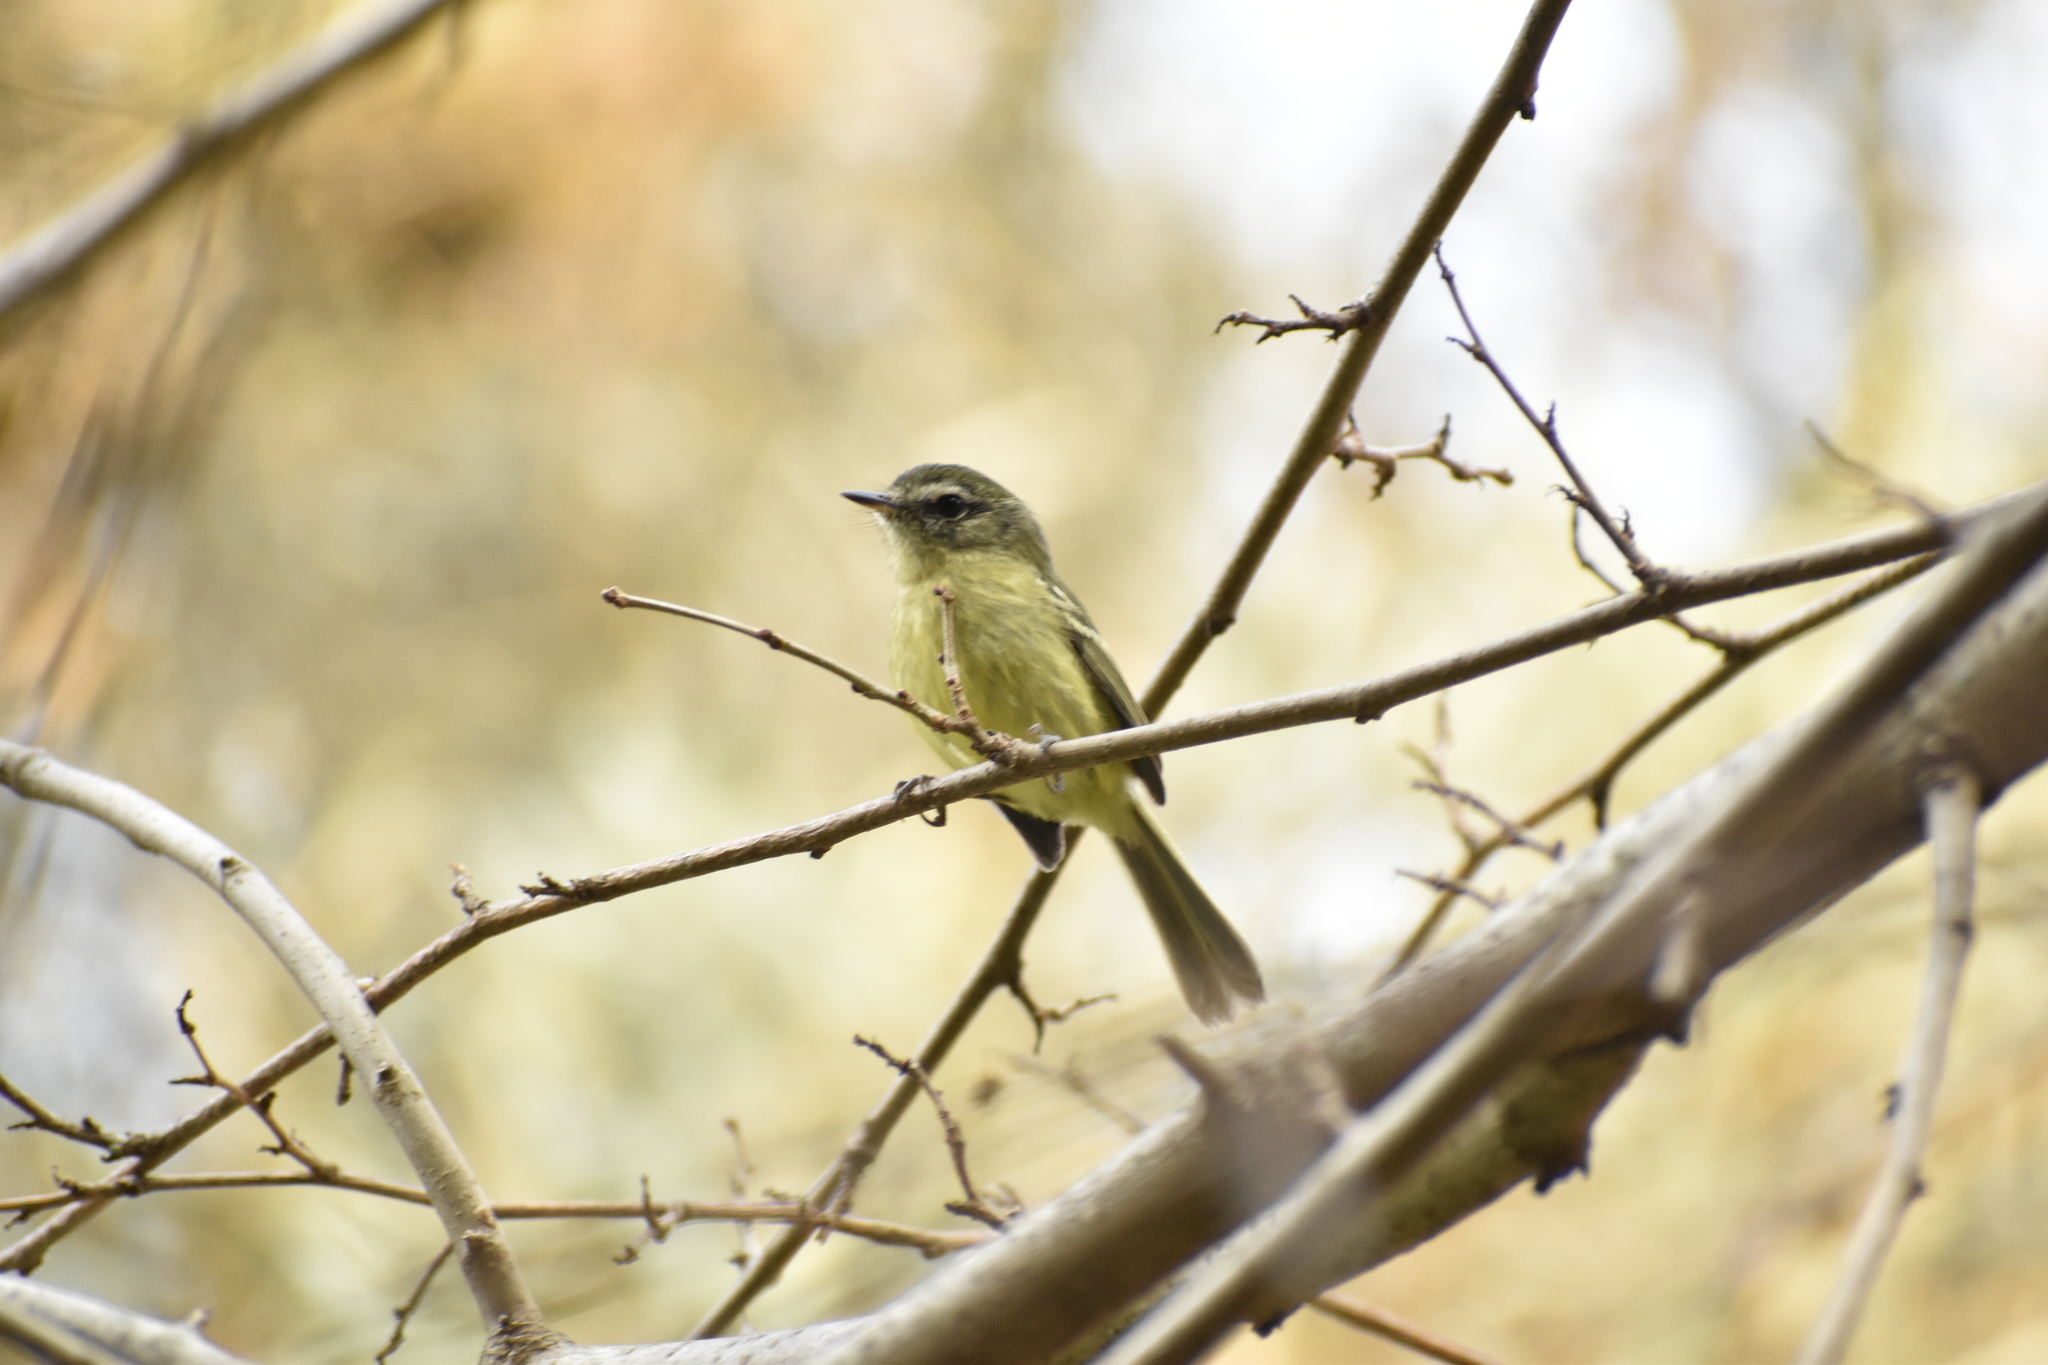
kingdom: Animalia
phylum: Chordata
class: Aves
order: Passeriformes
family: Tyrannidae
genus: Phylloscartes
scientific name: Phylloscartes ventralis
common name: Mottle-cheeked tyrannulet
